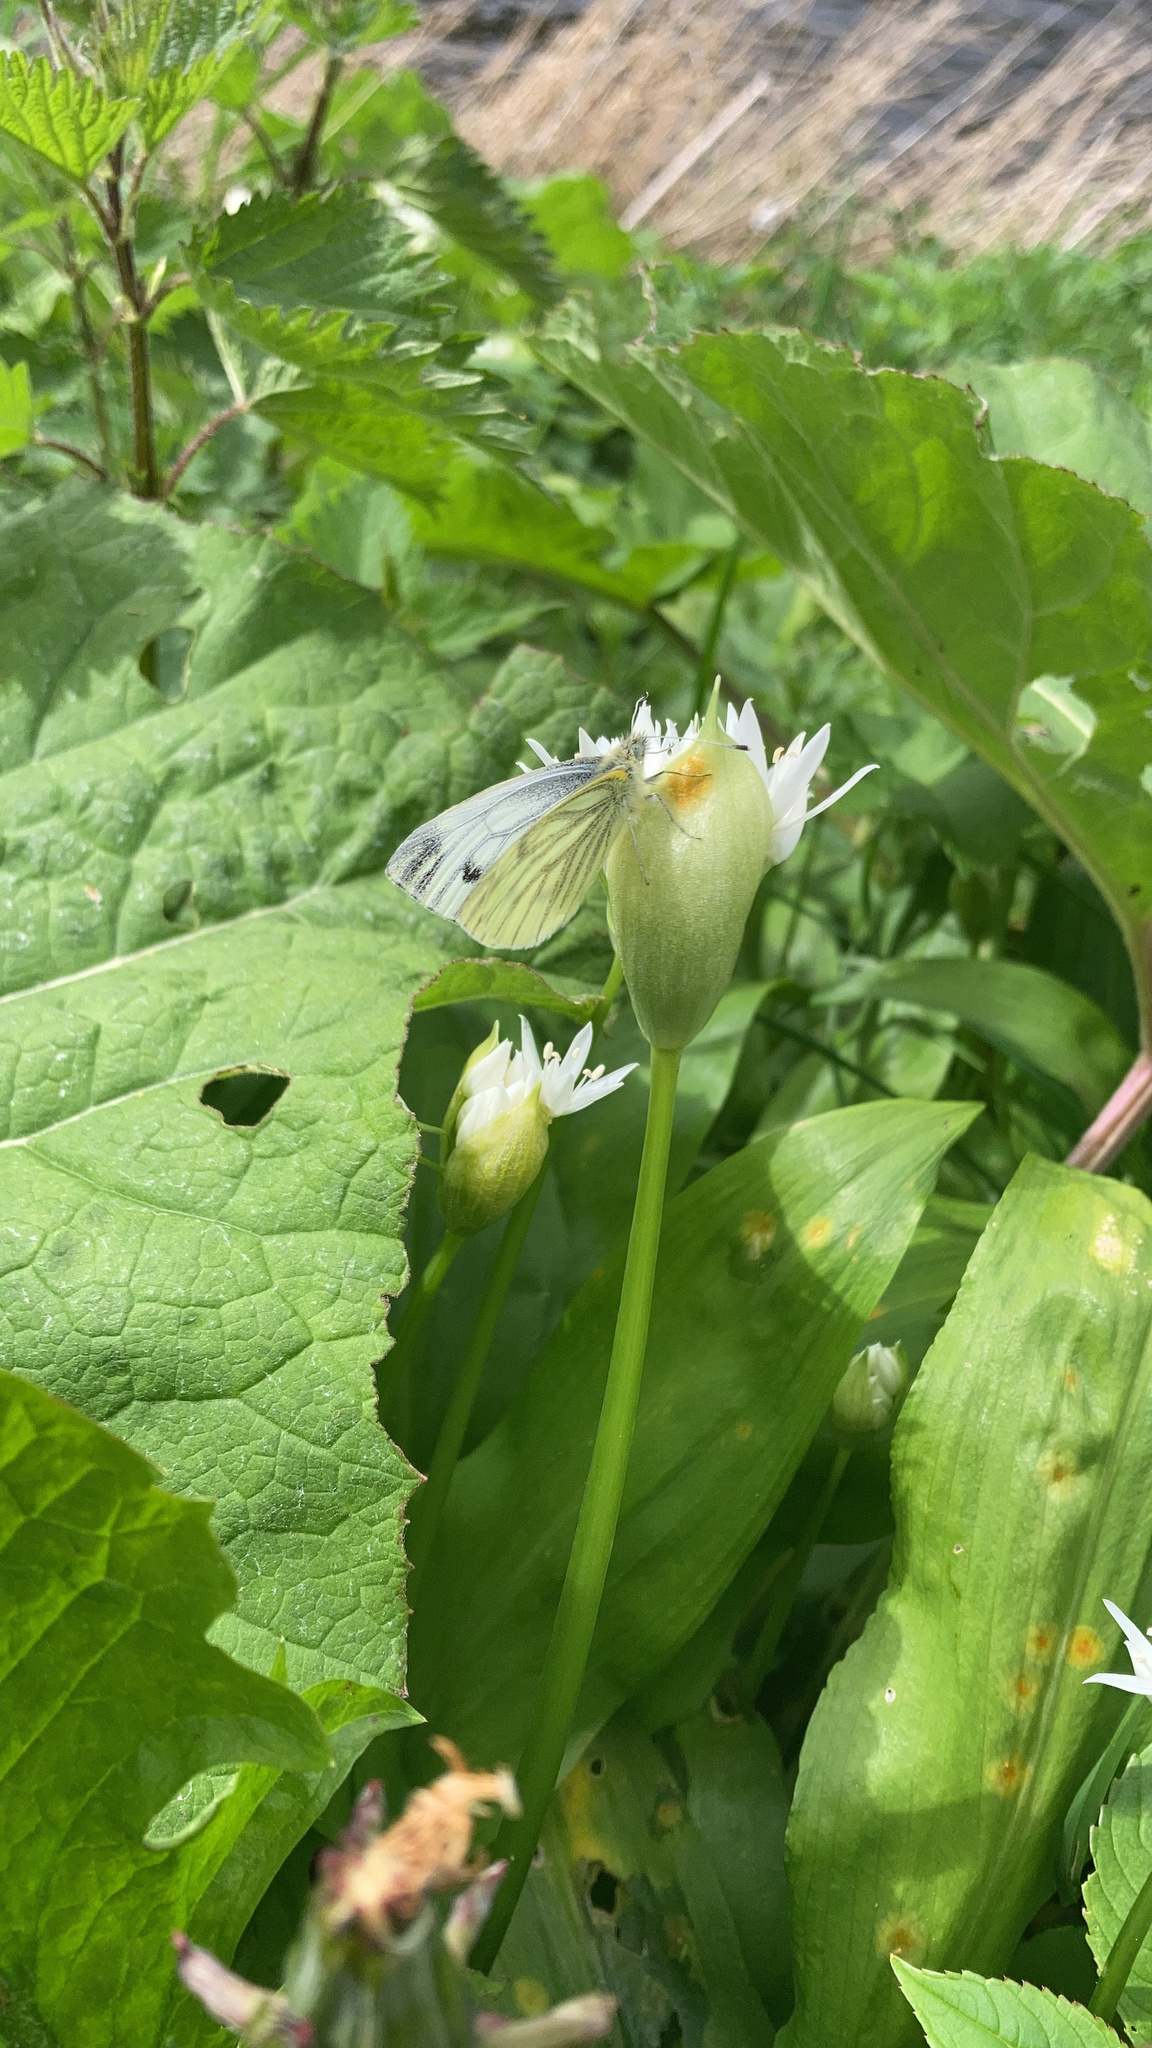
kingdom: Animalia
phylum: Arthropoda
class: Insecta
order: Lepidoptera
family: Pieridae
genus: Pieris
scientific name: Pieris napi
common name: Green-veined white
